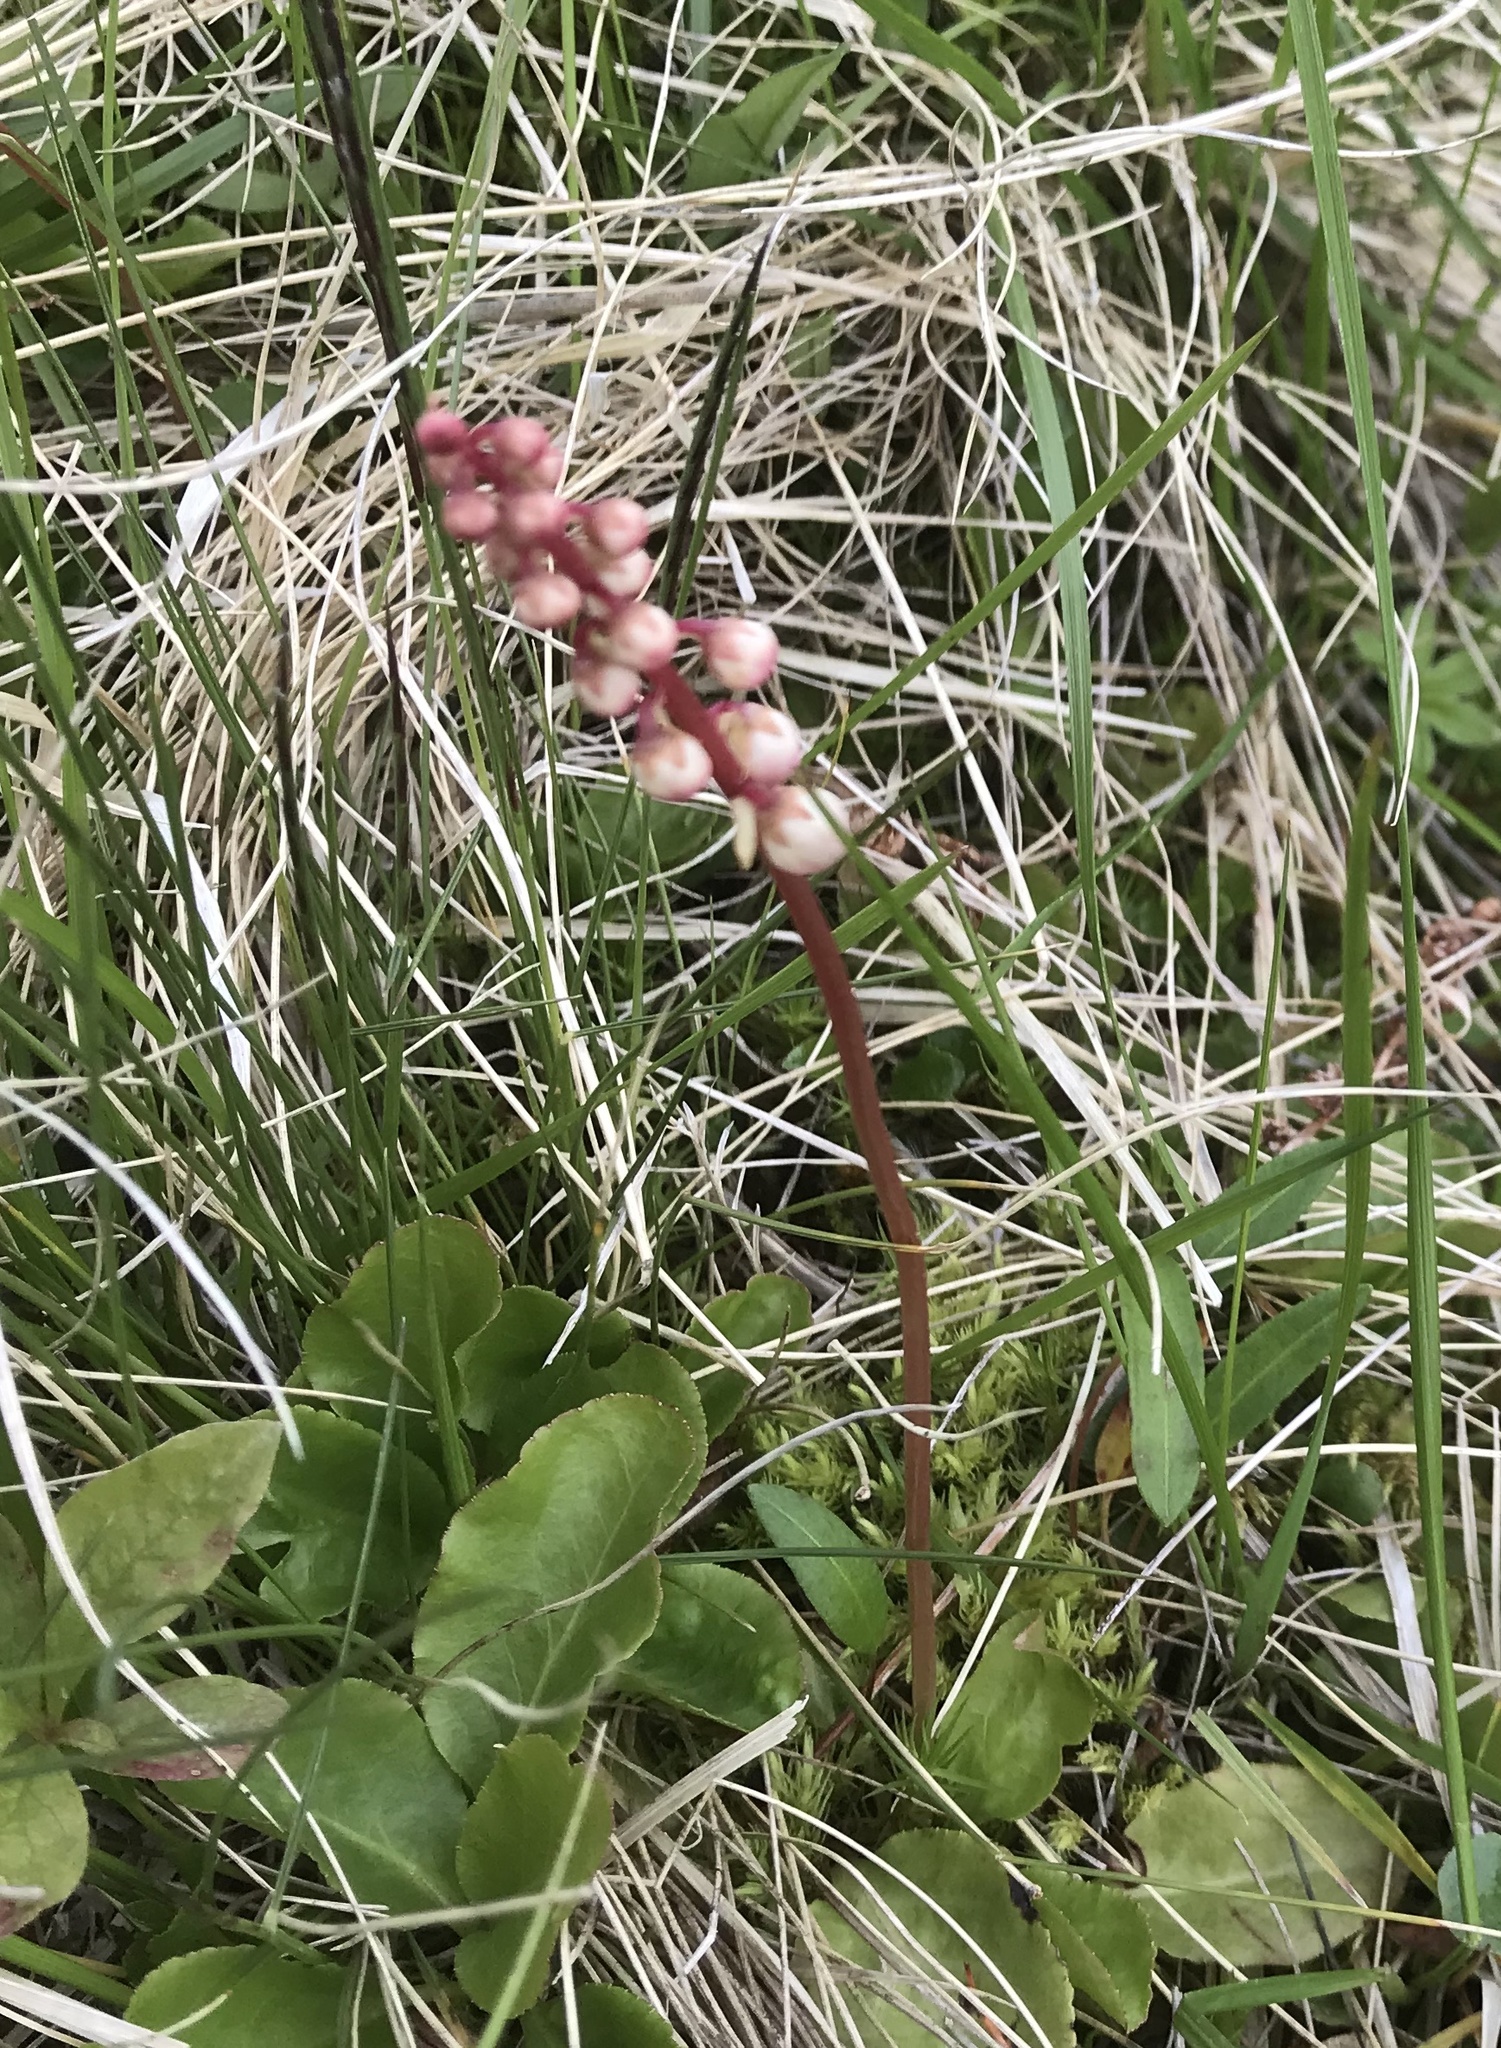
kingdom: Plantae
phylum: Tracheophyta
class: Magnoliopsida
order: Ericales
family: Ericaceae
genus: Pyrola
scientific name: Pyrola minor
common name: Common wintergreen
